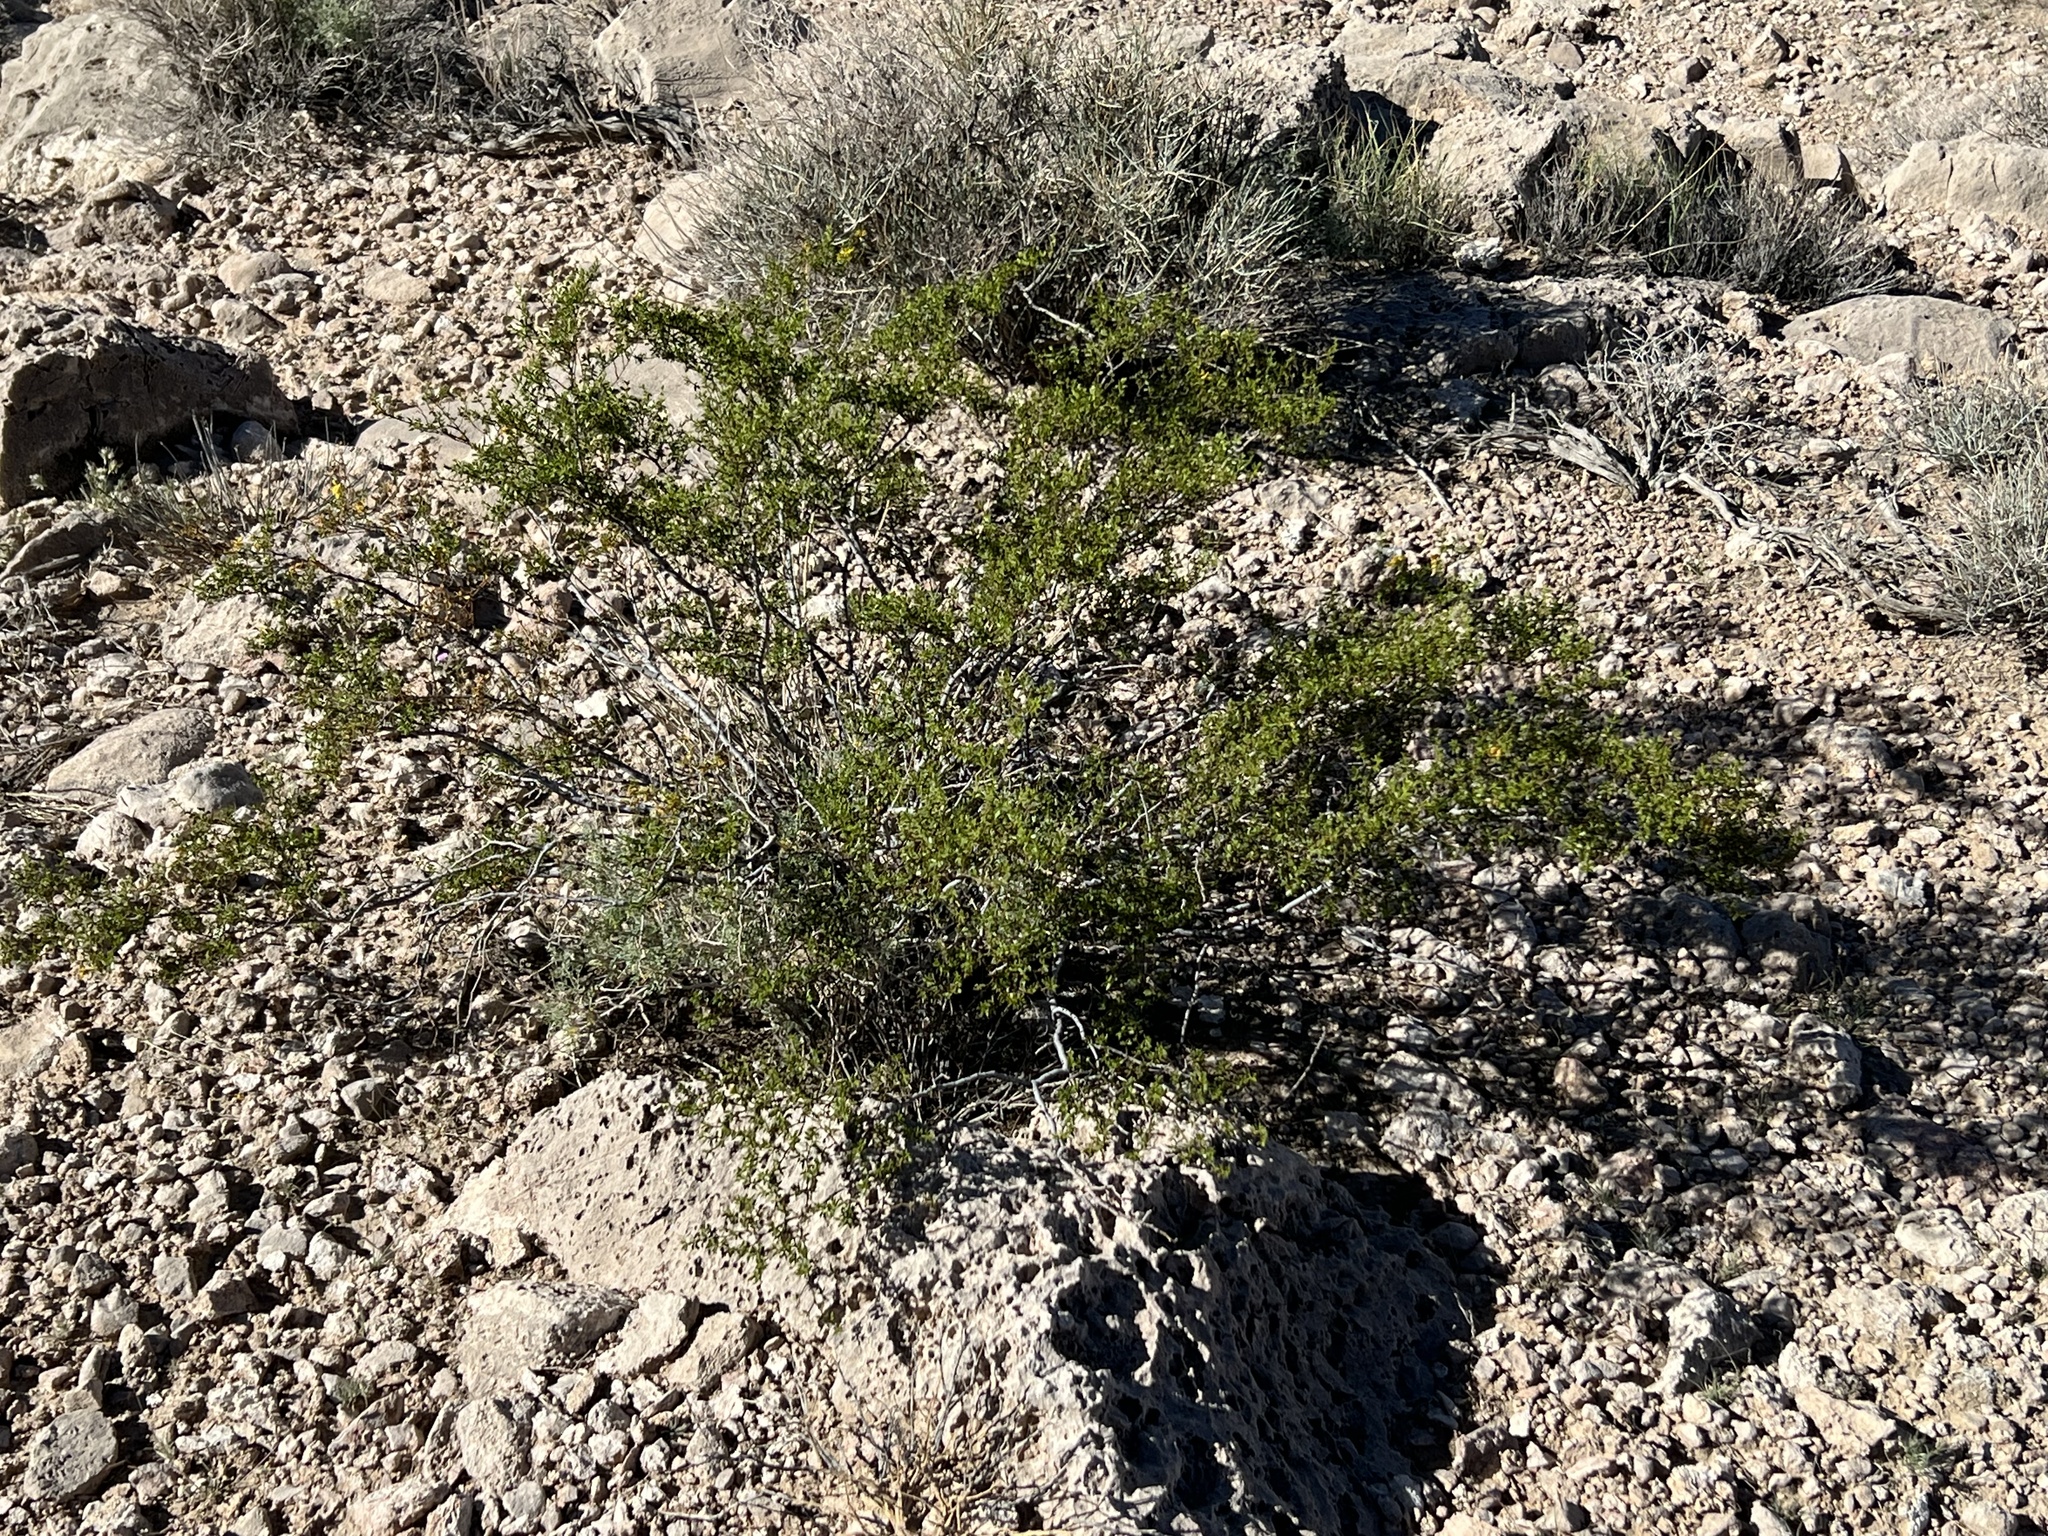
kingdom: Plantae
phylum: Tracheophyta
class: Magnoliopsida
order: Zygophyllales
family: Zygophyllaceae
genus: Larrea
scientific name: Larrea tridentata
